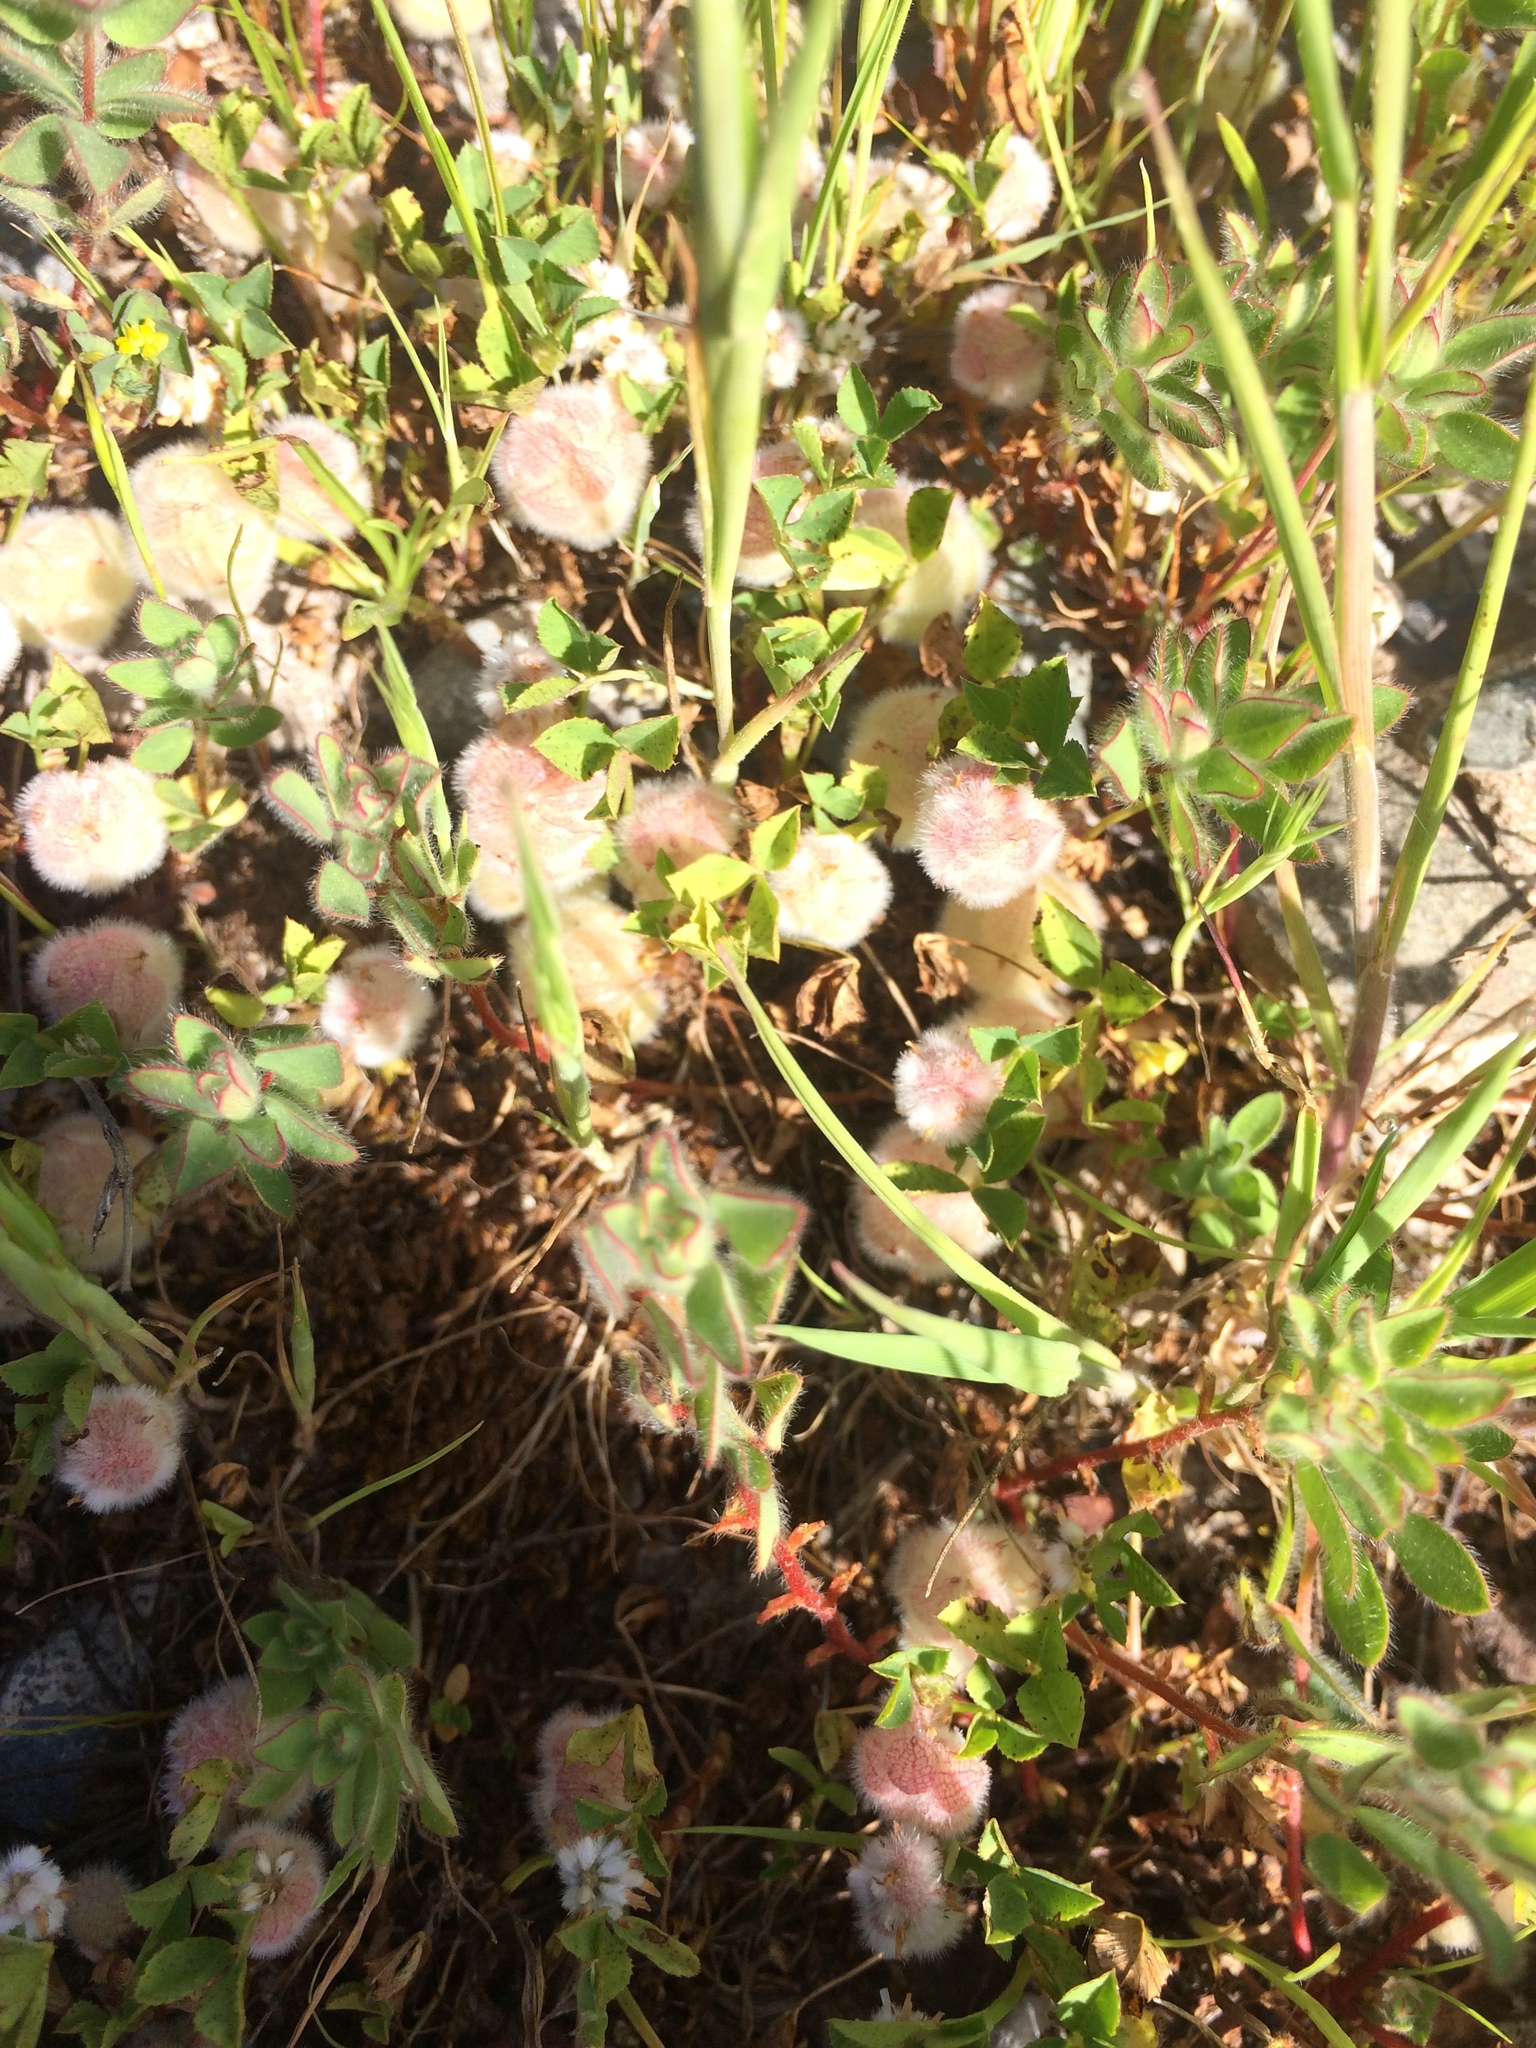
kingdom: Plantae
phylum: Tracheophyta
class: Magnoliopsida
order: Fabales
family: Fabaceae
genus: Trifolium
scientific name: Trifolium tomentosum
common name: Woolly clover
